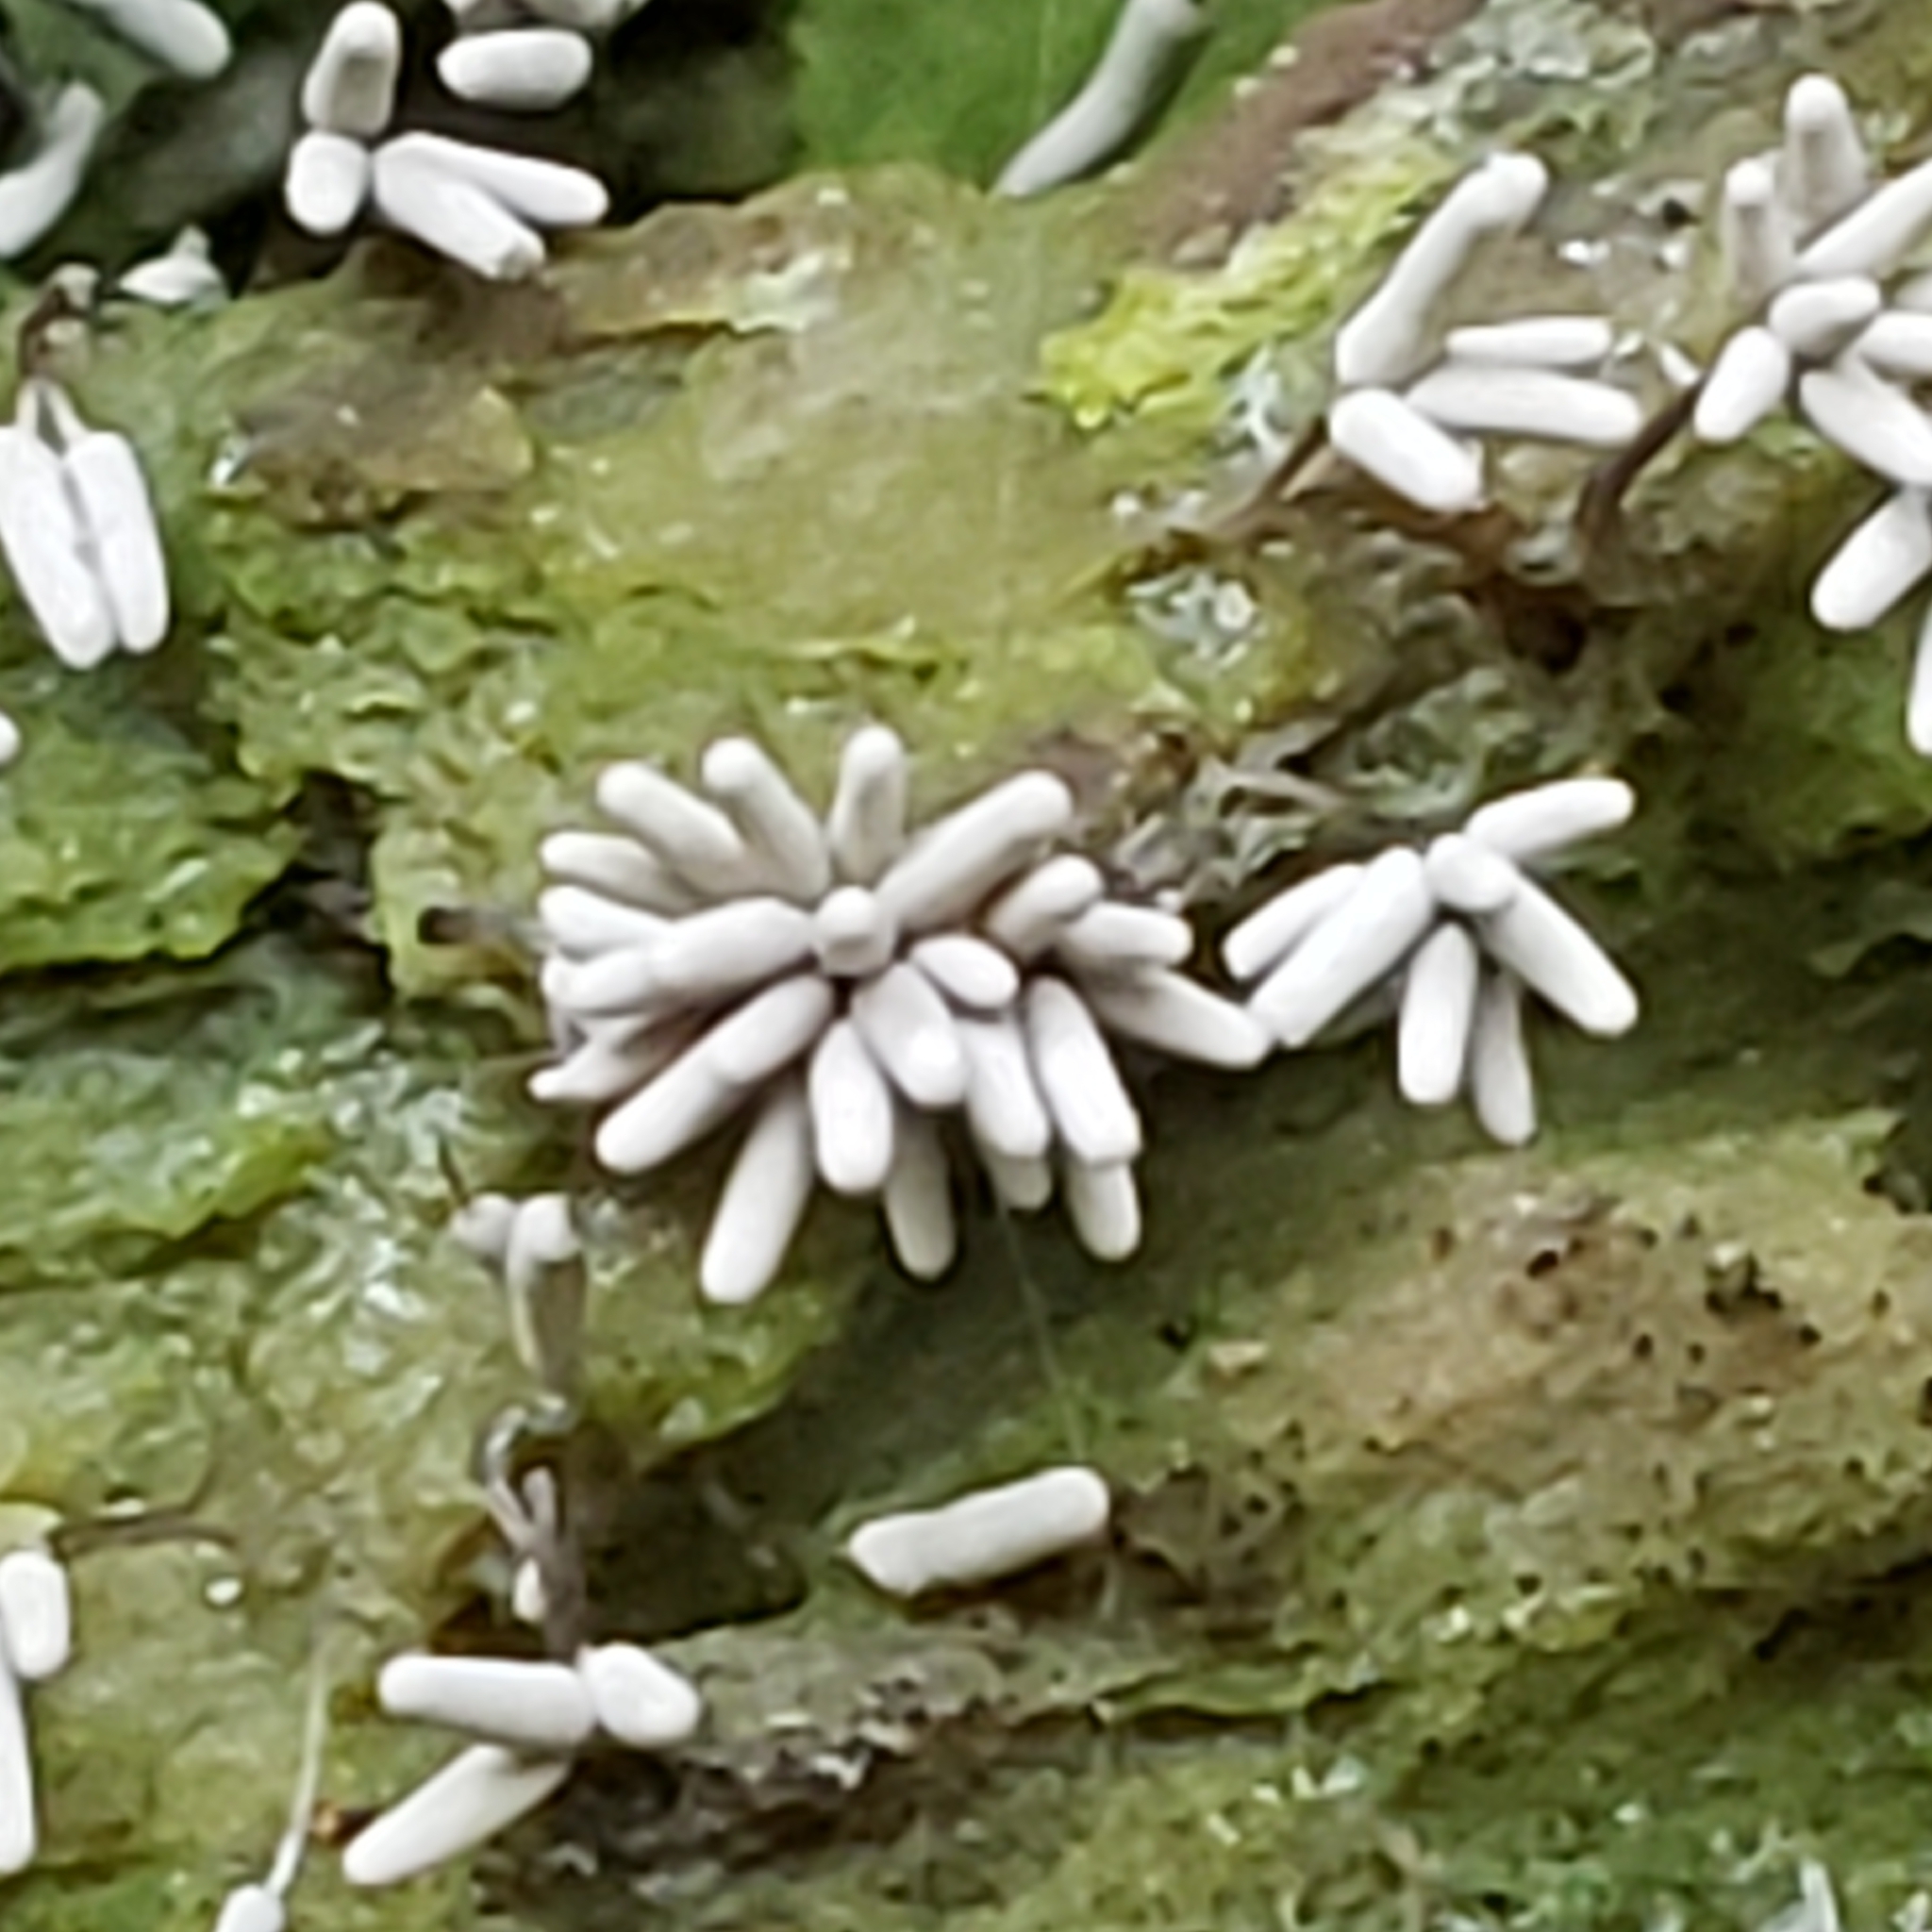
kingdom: Protozoa
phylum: Mycetozoa
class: Myxomycetes
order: Trichiales
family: Arcyriaceae
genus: Arcyria
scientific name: Arcyria cinerea
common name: White carnival candy slime mold
